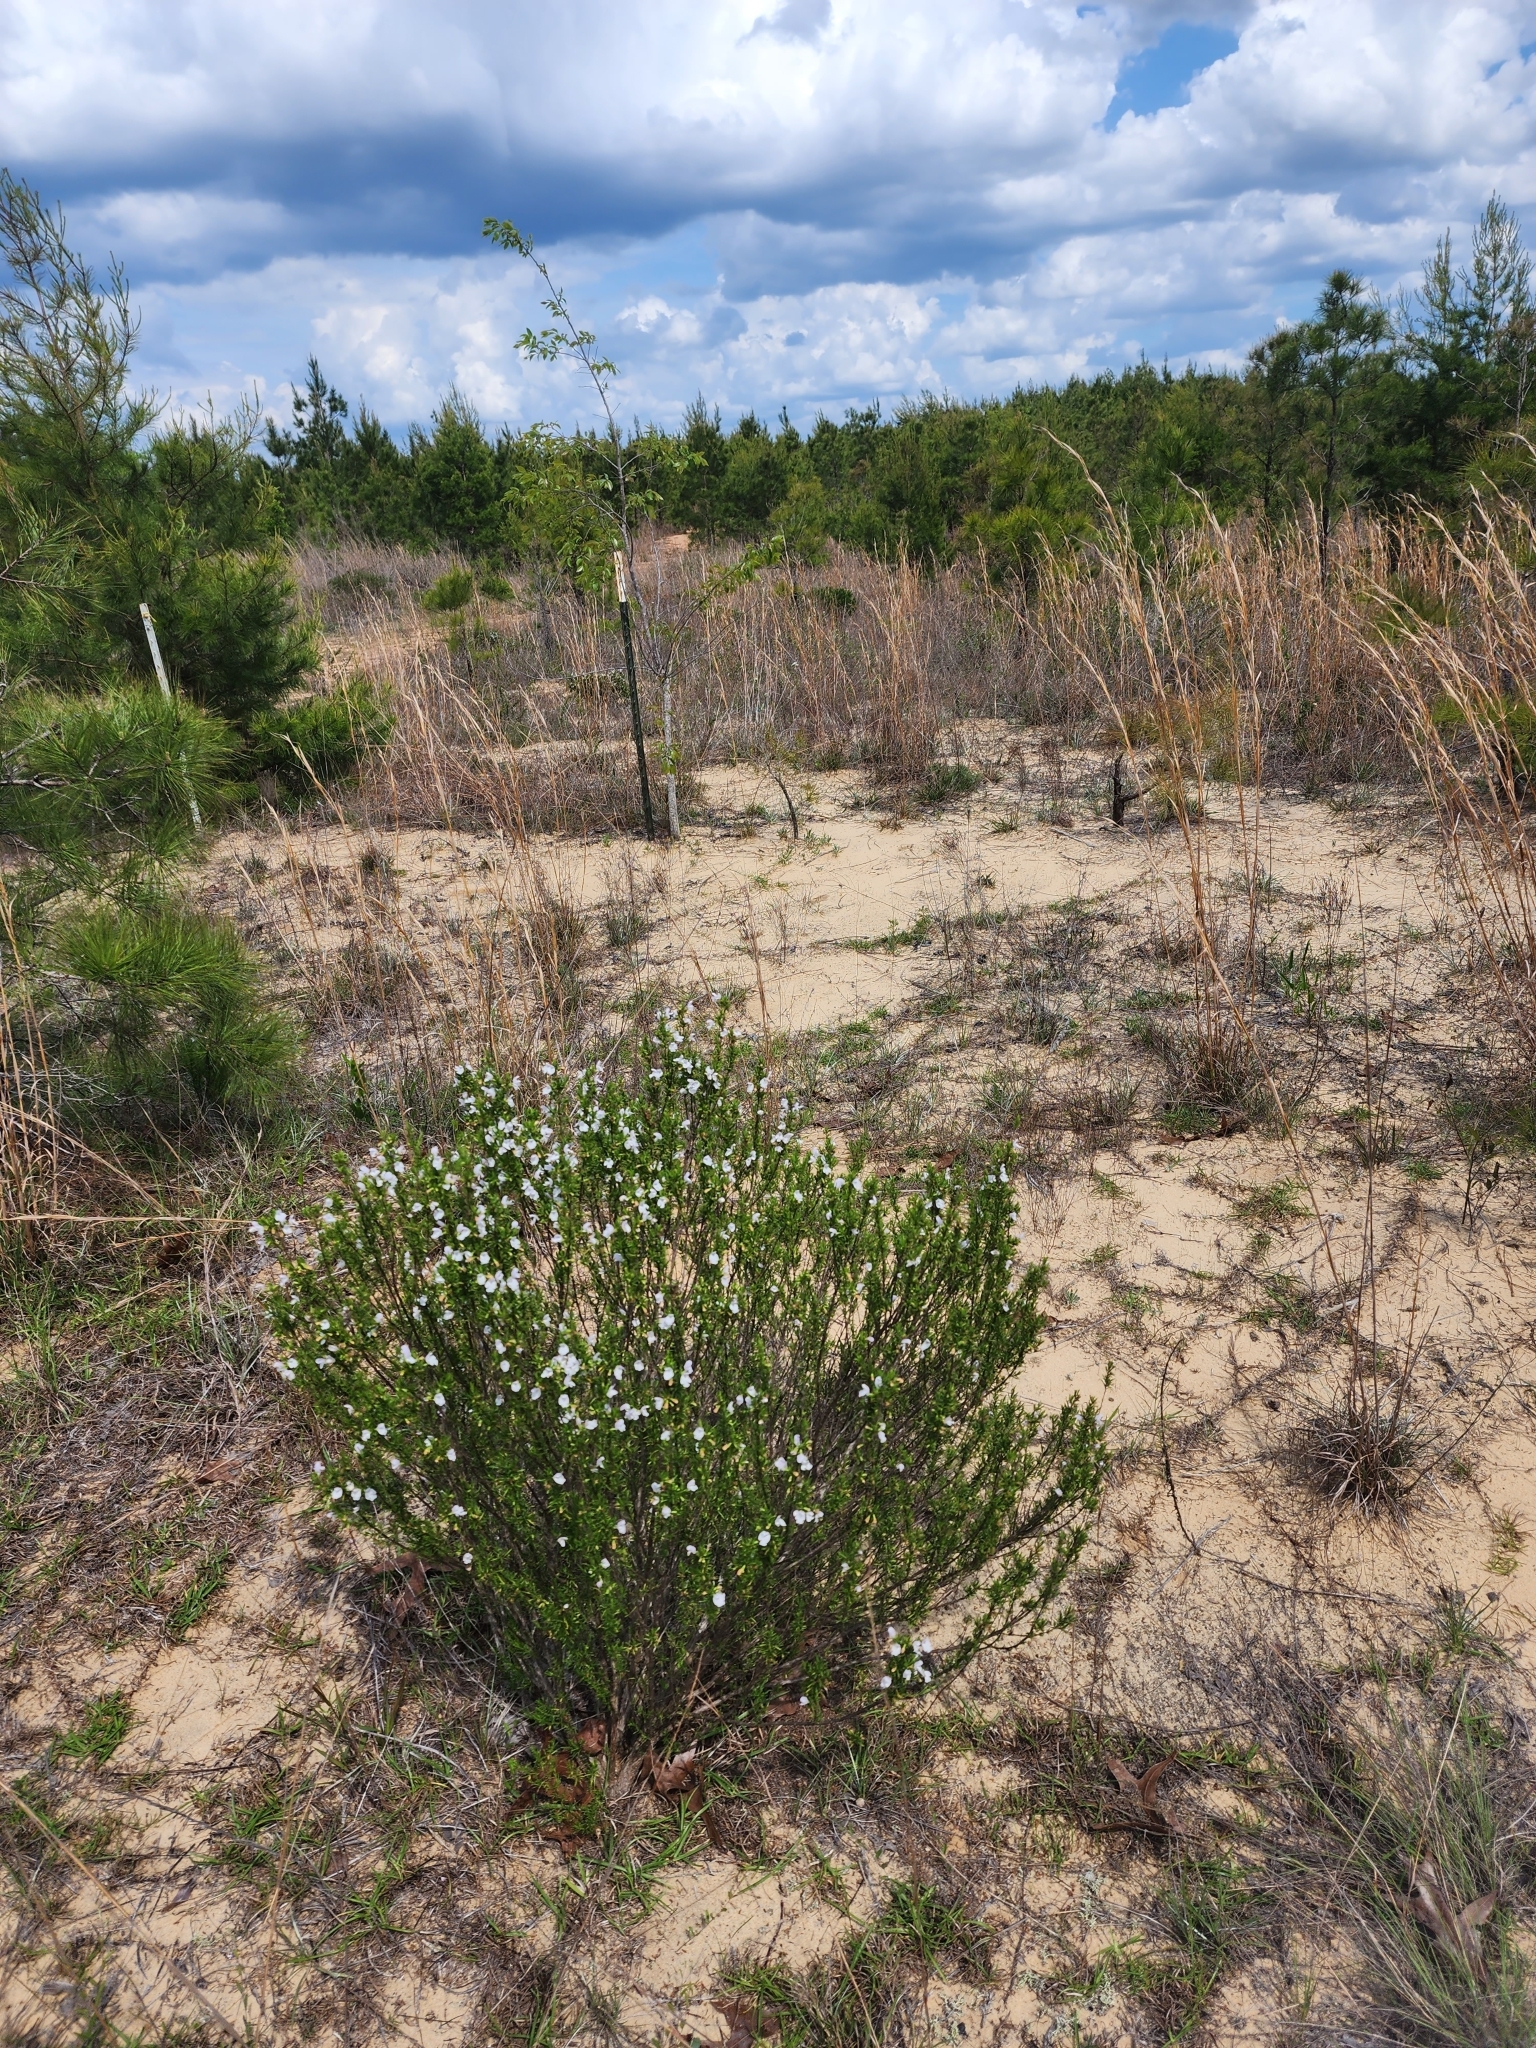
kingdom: Plantae
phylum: Tracheophyta
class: Magnoliopsida
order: Lamiales
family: Lamiaceae
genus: Conradina
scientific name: Conradina glabra
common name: Apalachicola-rosemary
